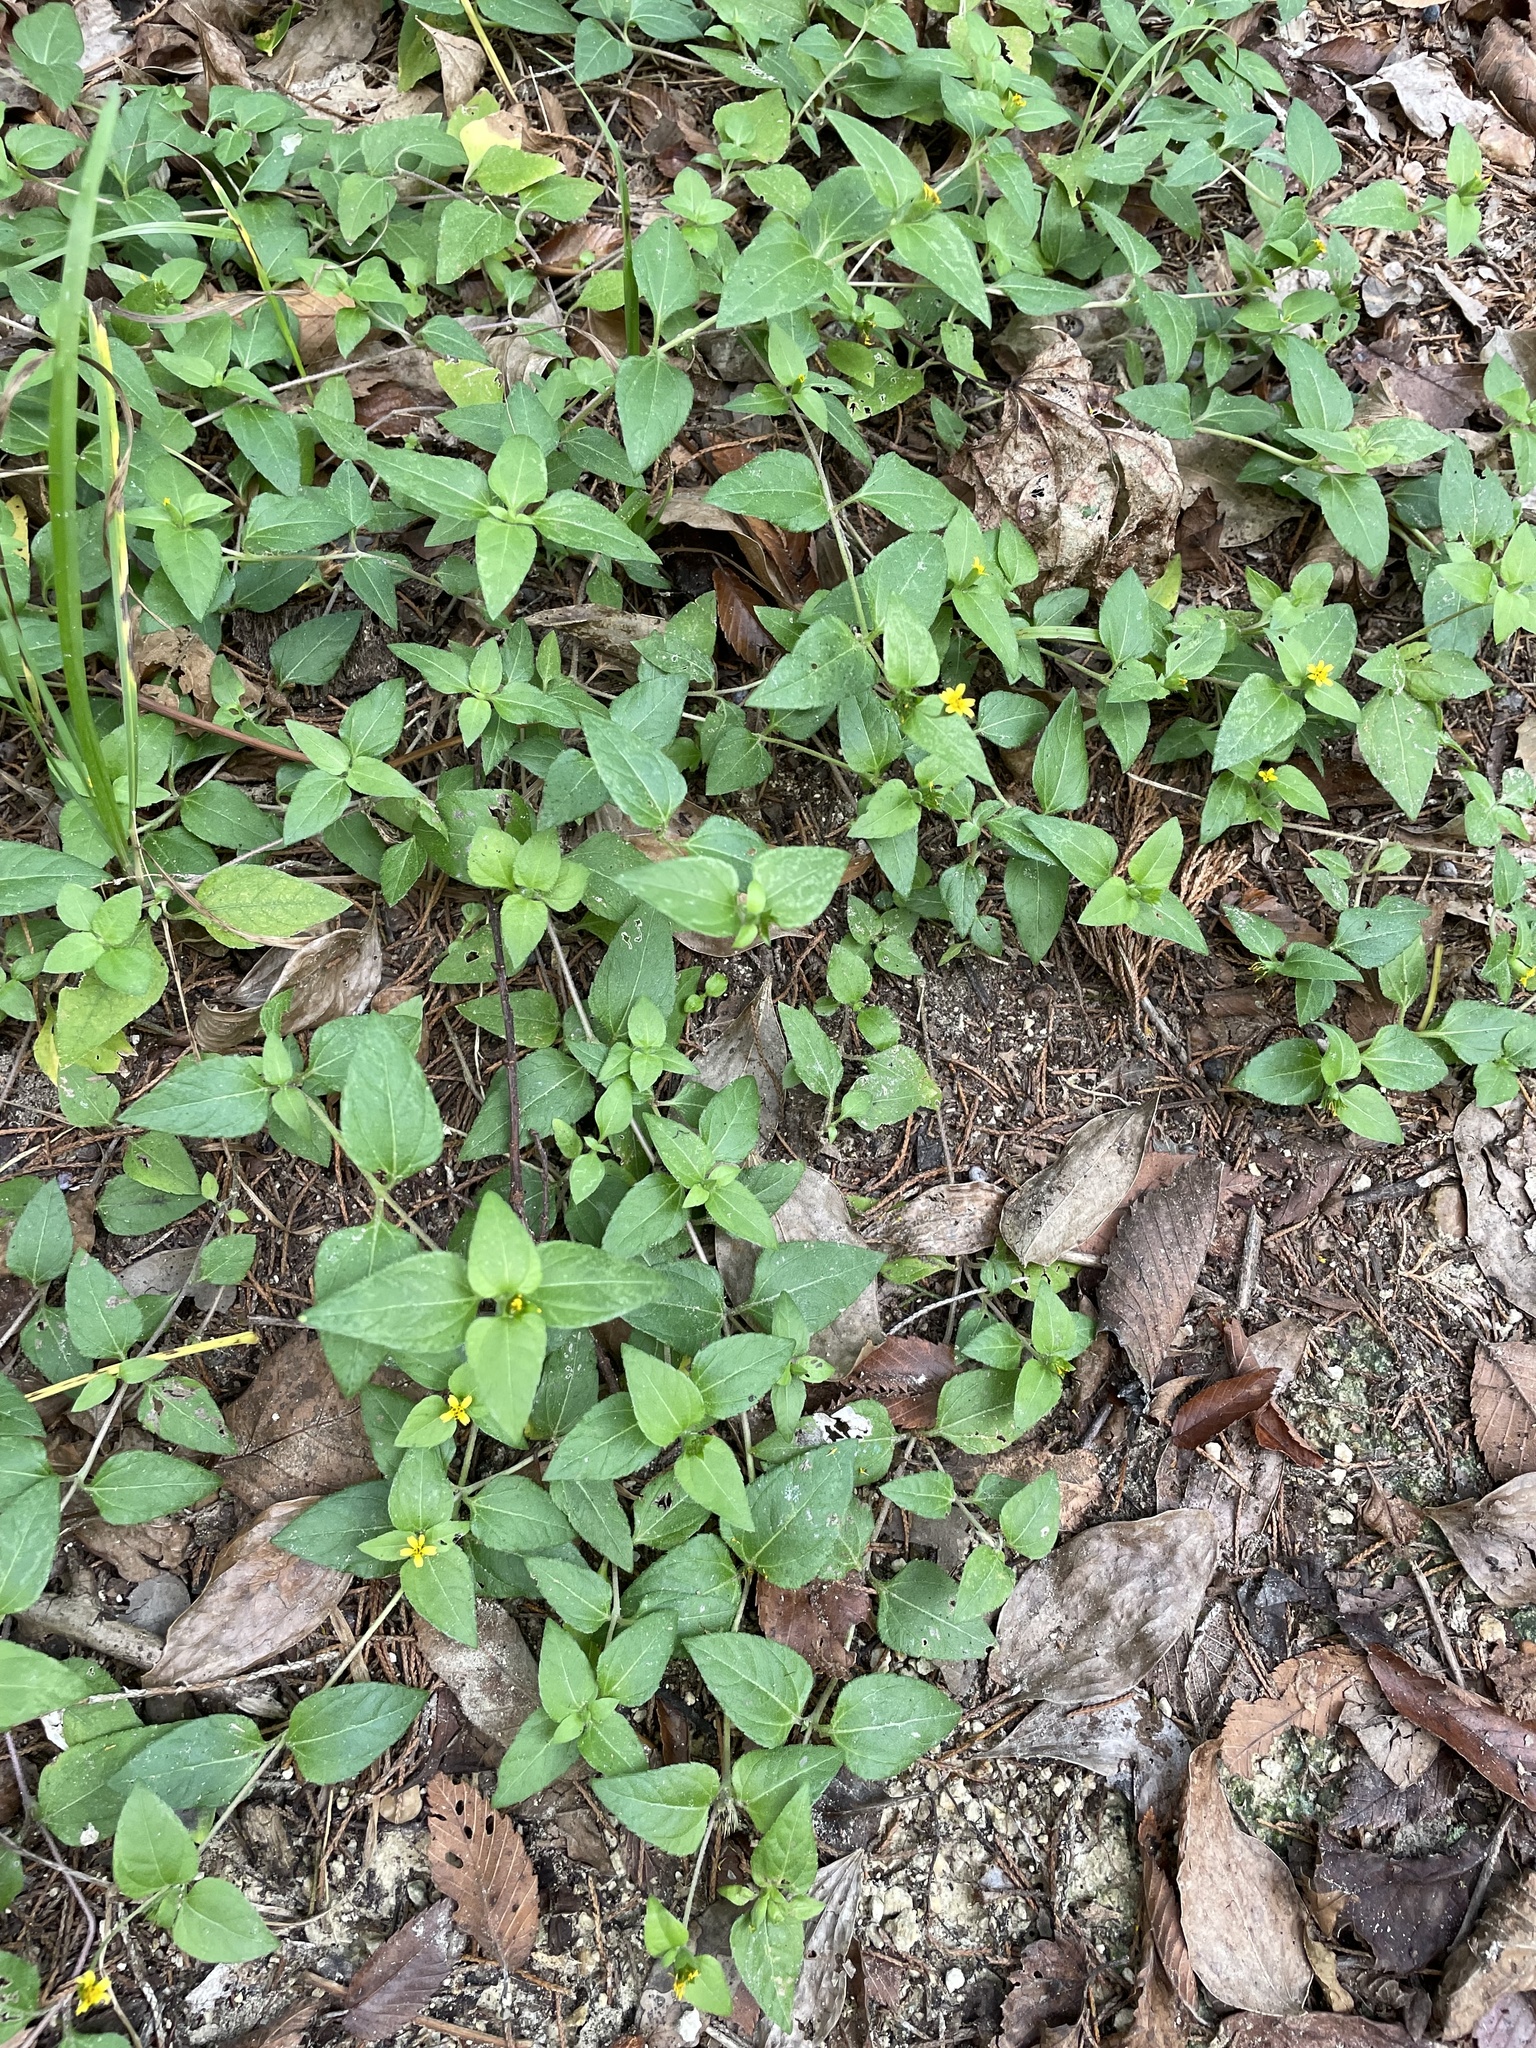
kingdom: Plantae
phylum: Tracheophyta
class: Magnoliopsida
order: Asterales
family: Asteraceae
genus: Calyptocarpus
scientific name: Calyptocarpus vialis
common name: Straggler daisy
